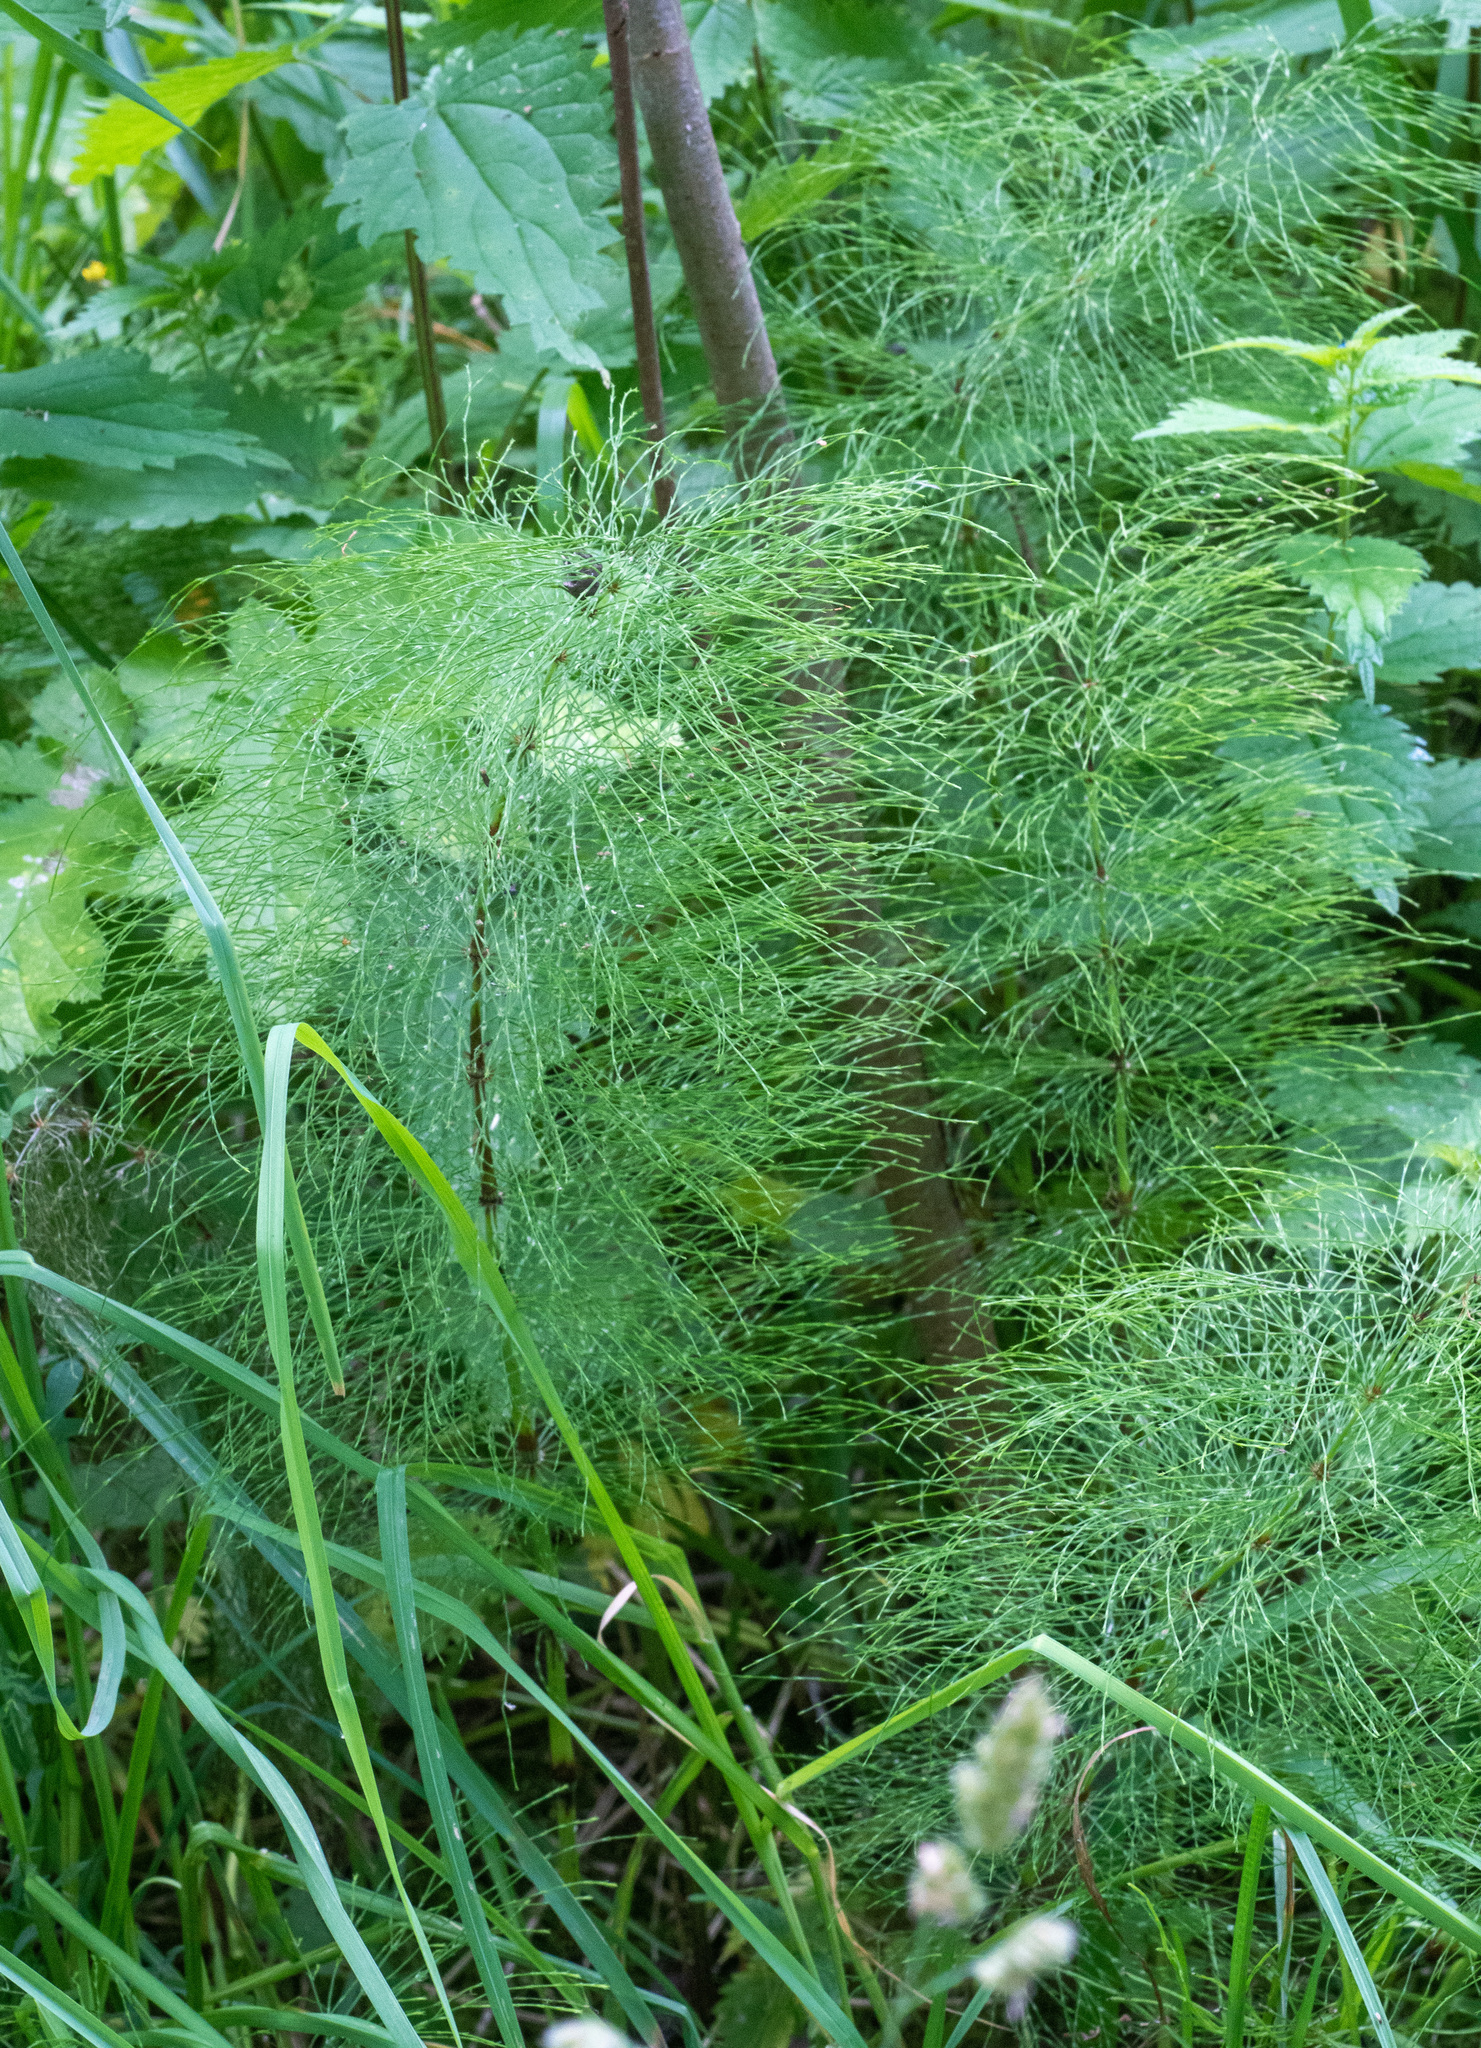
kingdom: Plantae
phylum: Tracheophyta
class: Polypodiopsida
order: Equisetales
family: Equisetaceae
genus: Equisetum
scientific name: Equisetum sylvaticum
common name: Wood horsetail
